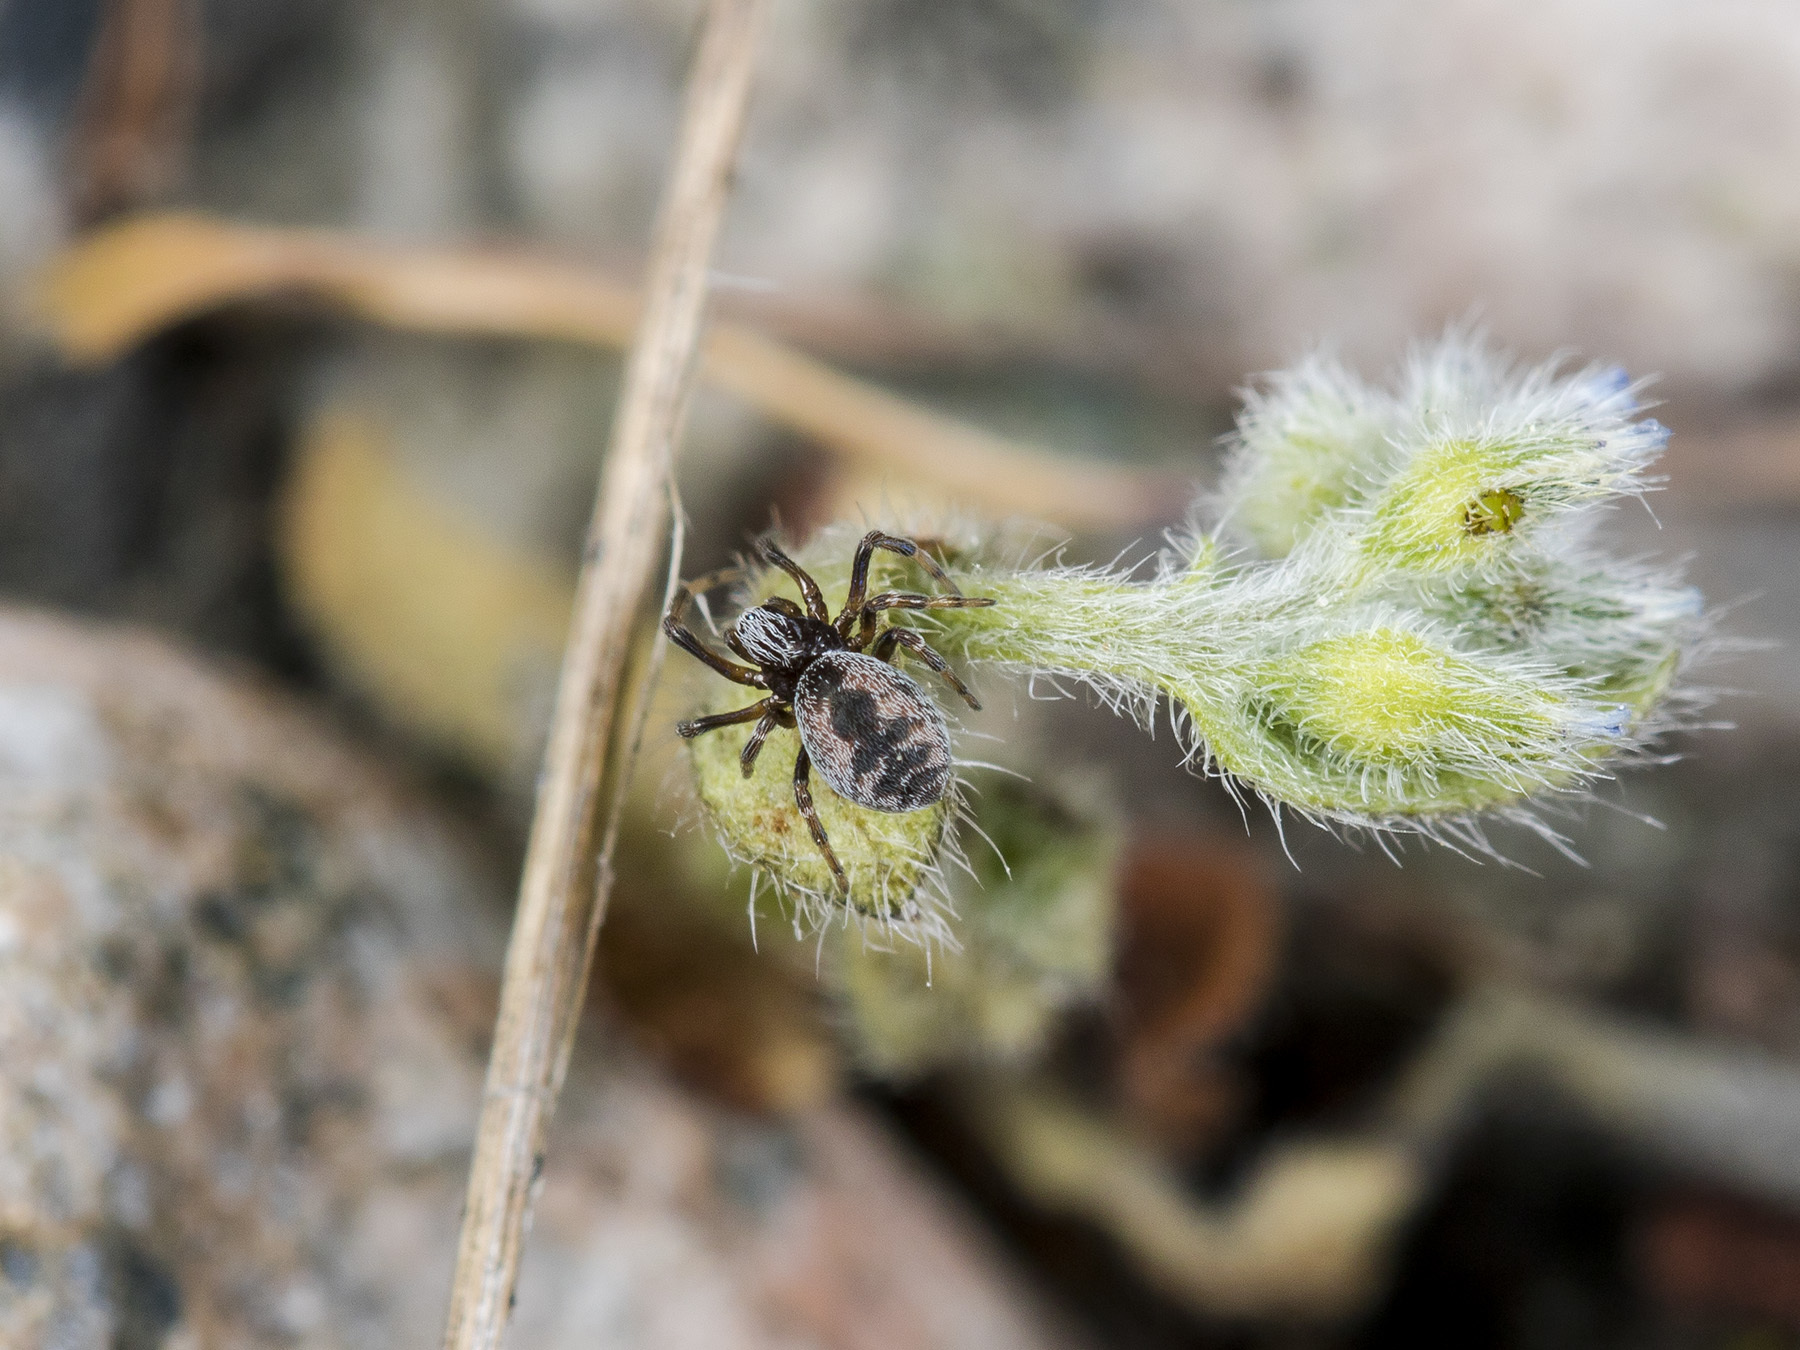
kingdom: Animalia
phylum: Arthropoda
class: Arachnida
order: Araneae
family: Dictynidae
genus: Dictyna
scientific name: Dictyna arundinacea
